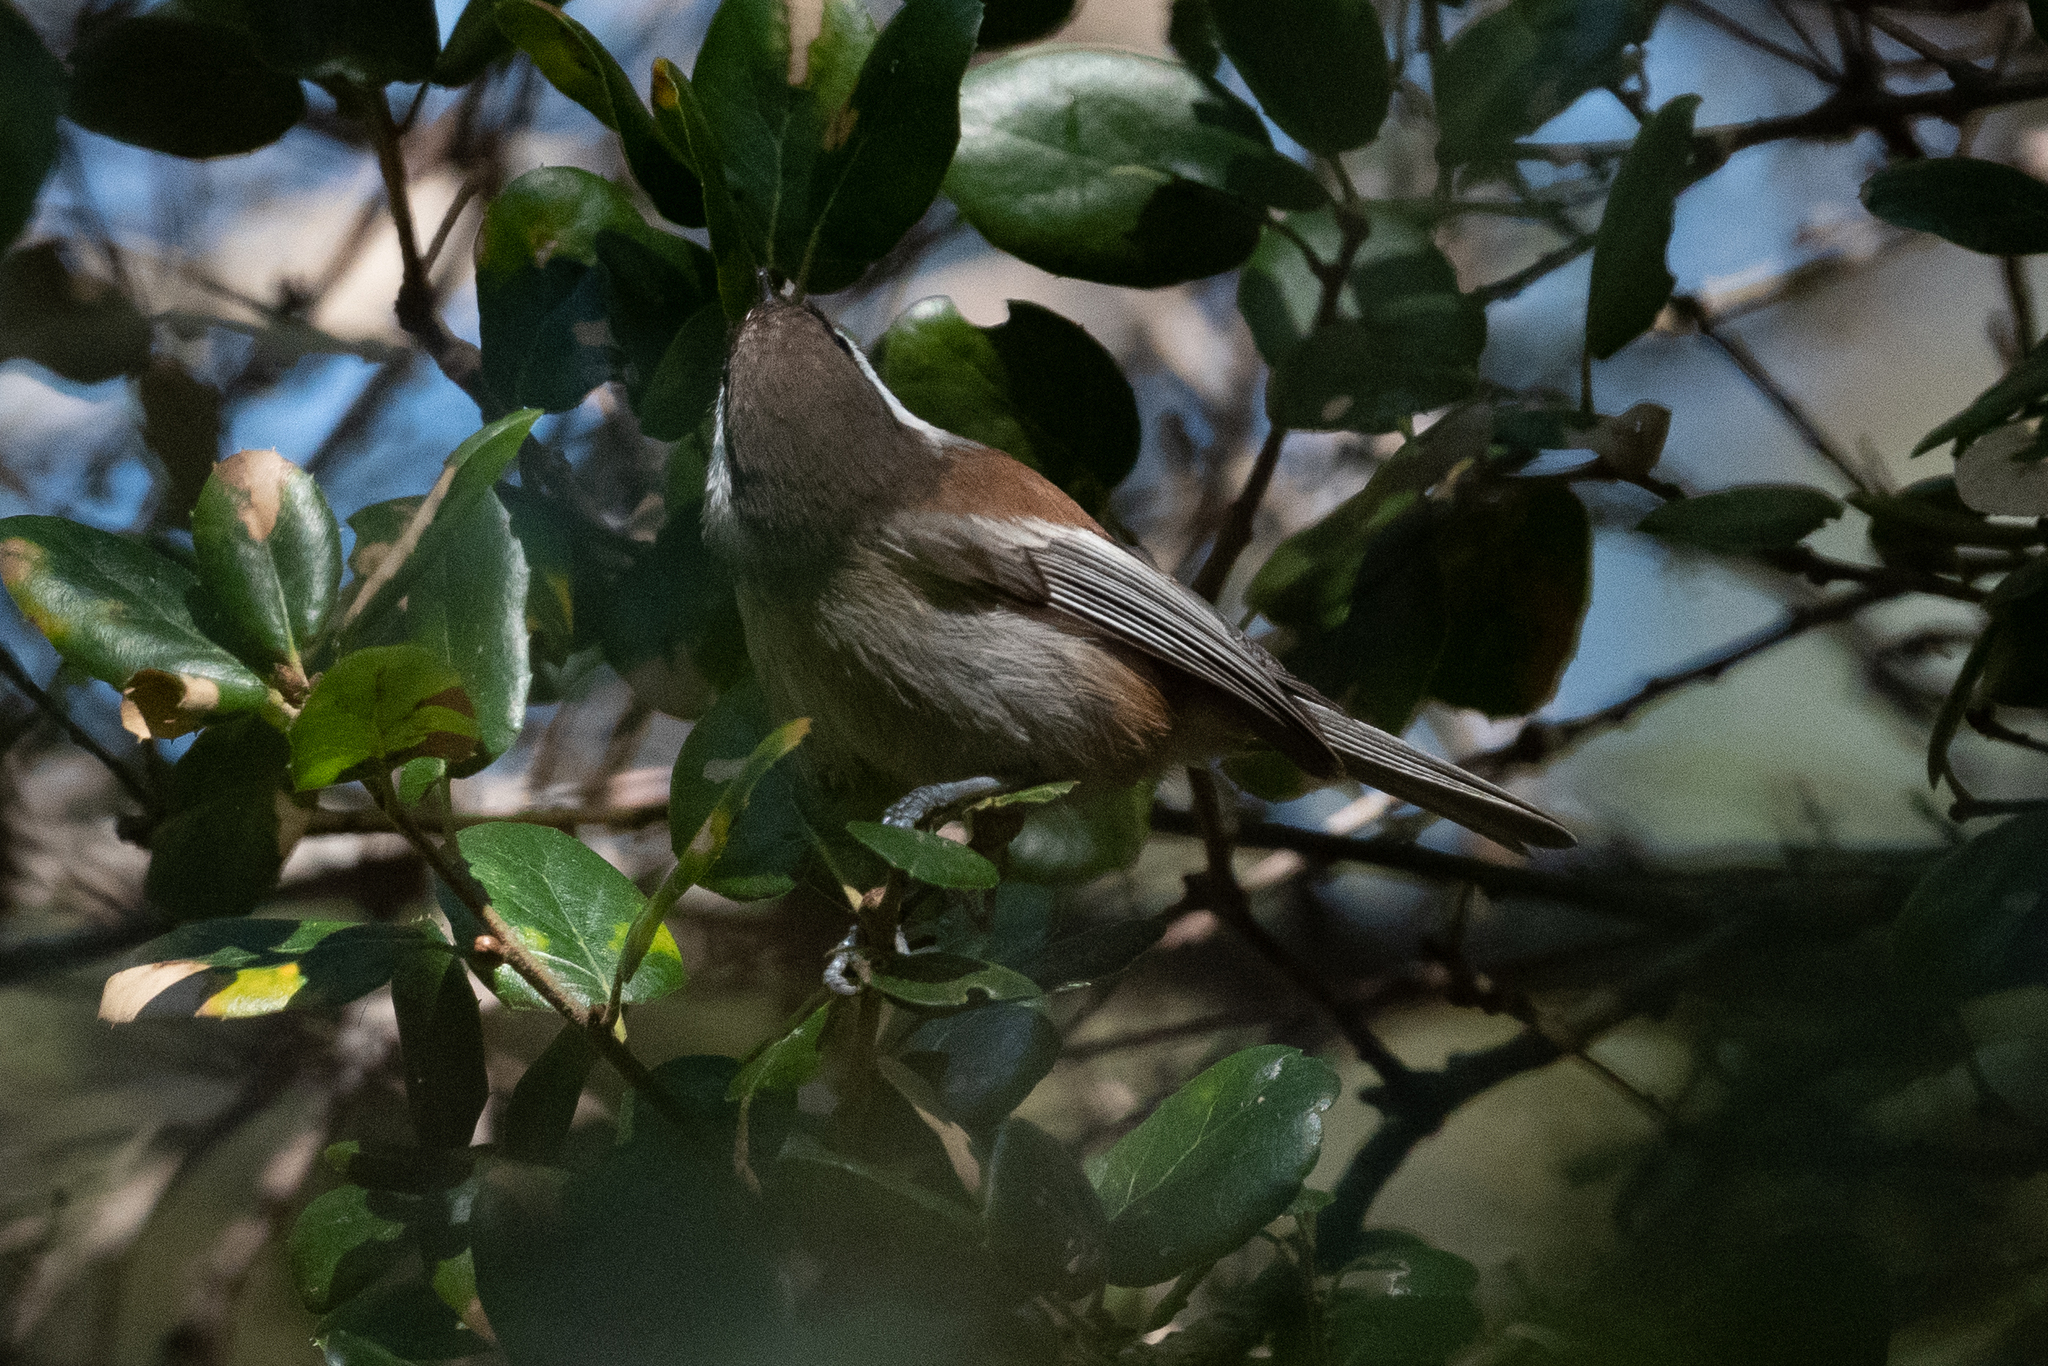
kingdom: Animalia
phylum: Chordata
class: Aves
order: Passeriformes
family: Paridae
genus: Poecile
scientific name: Poecile rufescens
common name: Chestnut-backed chickadee
